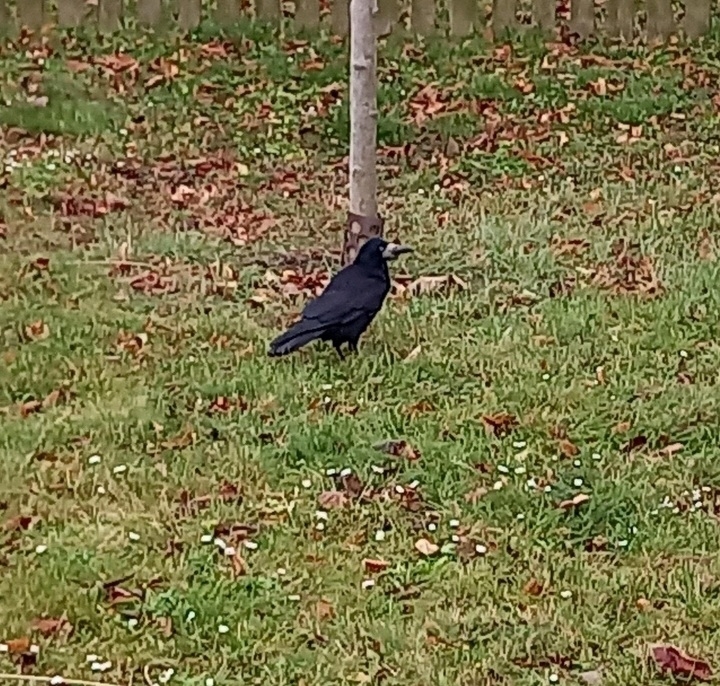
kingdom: Animalia
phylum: Chordata
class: Aves
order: Passeriformes
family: Corvidae
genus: Corvus
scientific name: Corvus frugilegus
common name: Rook
